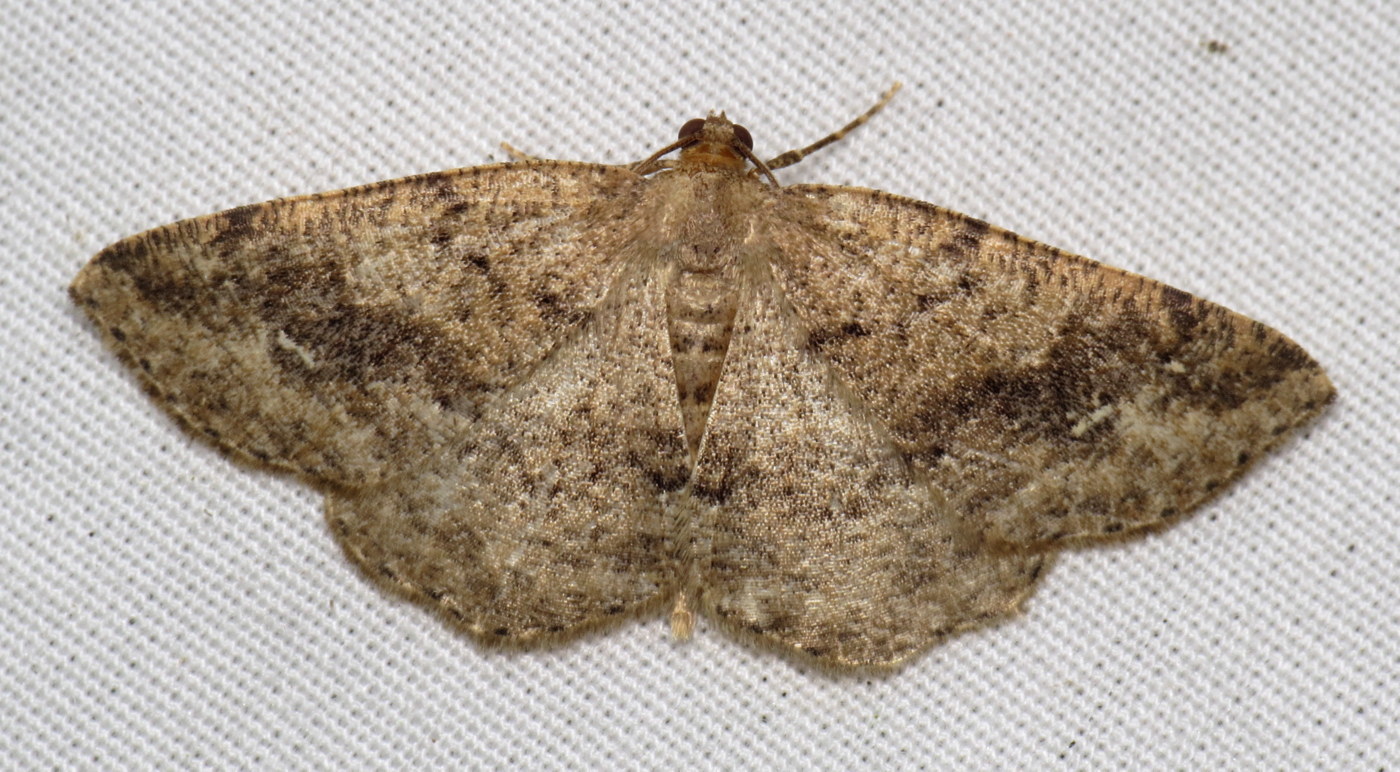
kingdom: Animalia
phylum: Arthropoda
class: Insecta
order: Lepidoptera
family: Geometridae
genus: Homochlodes
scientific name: Homochlodes fritillaria
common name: Pale homochlodes
